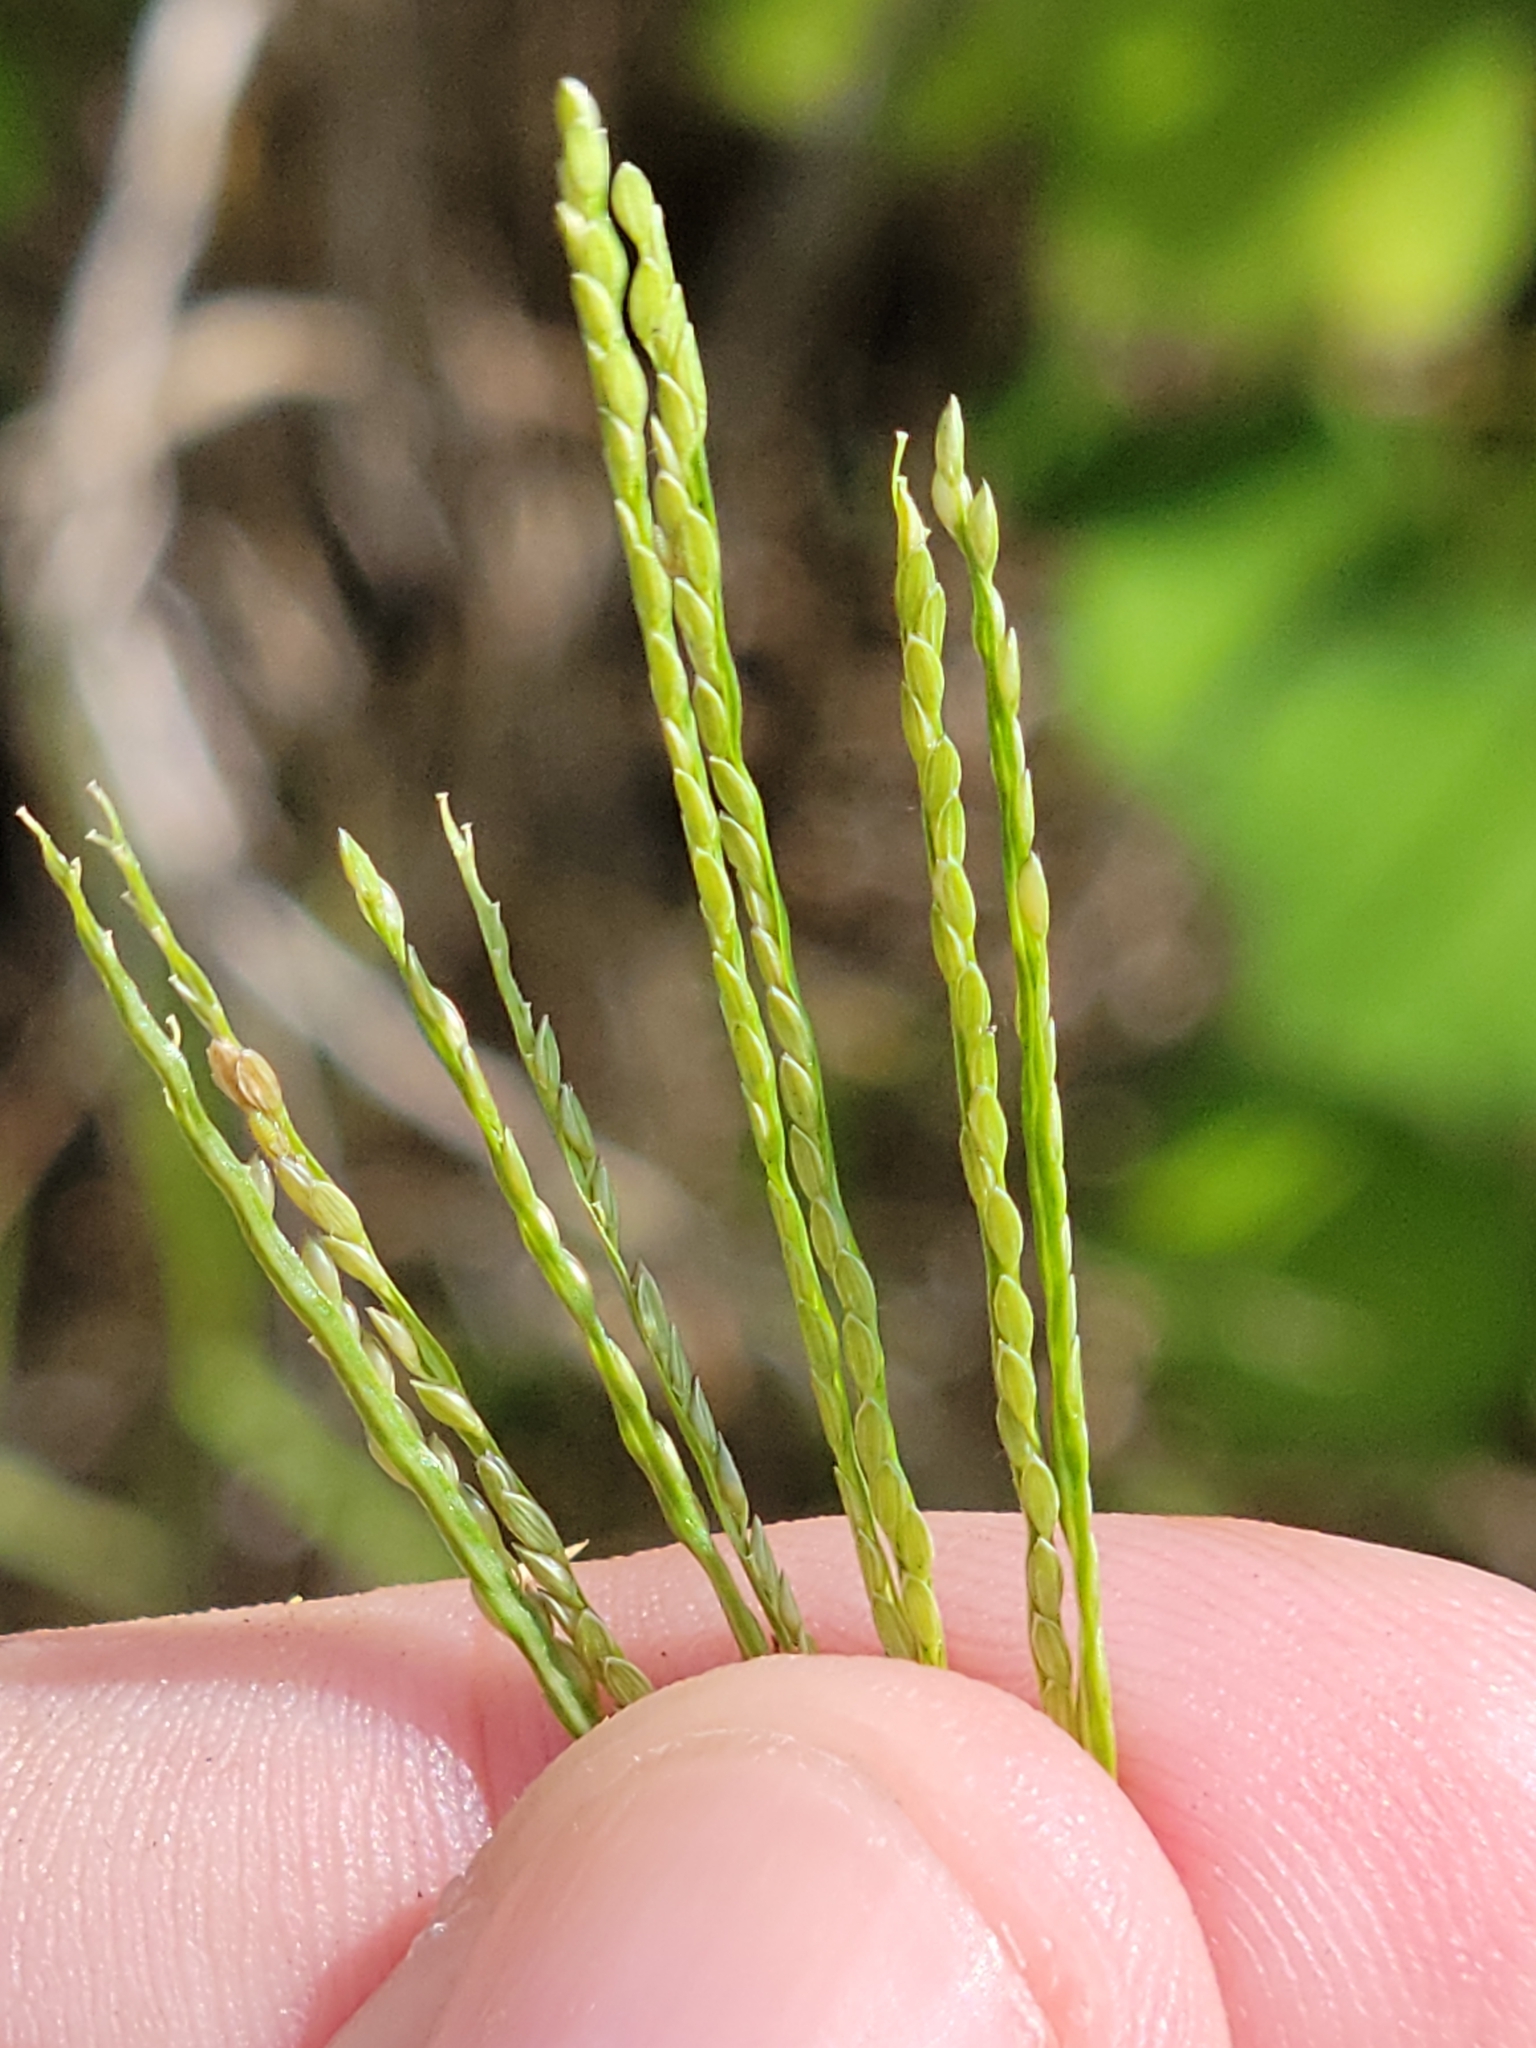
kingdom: Plantae
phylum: Tracheophyta
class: Liliopsida
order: Poales
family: Poaceae
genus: Digitaria
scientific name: Digitaria serotina
